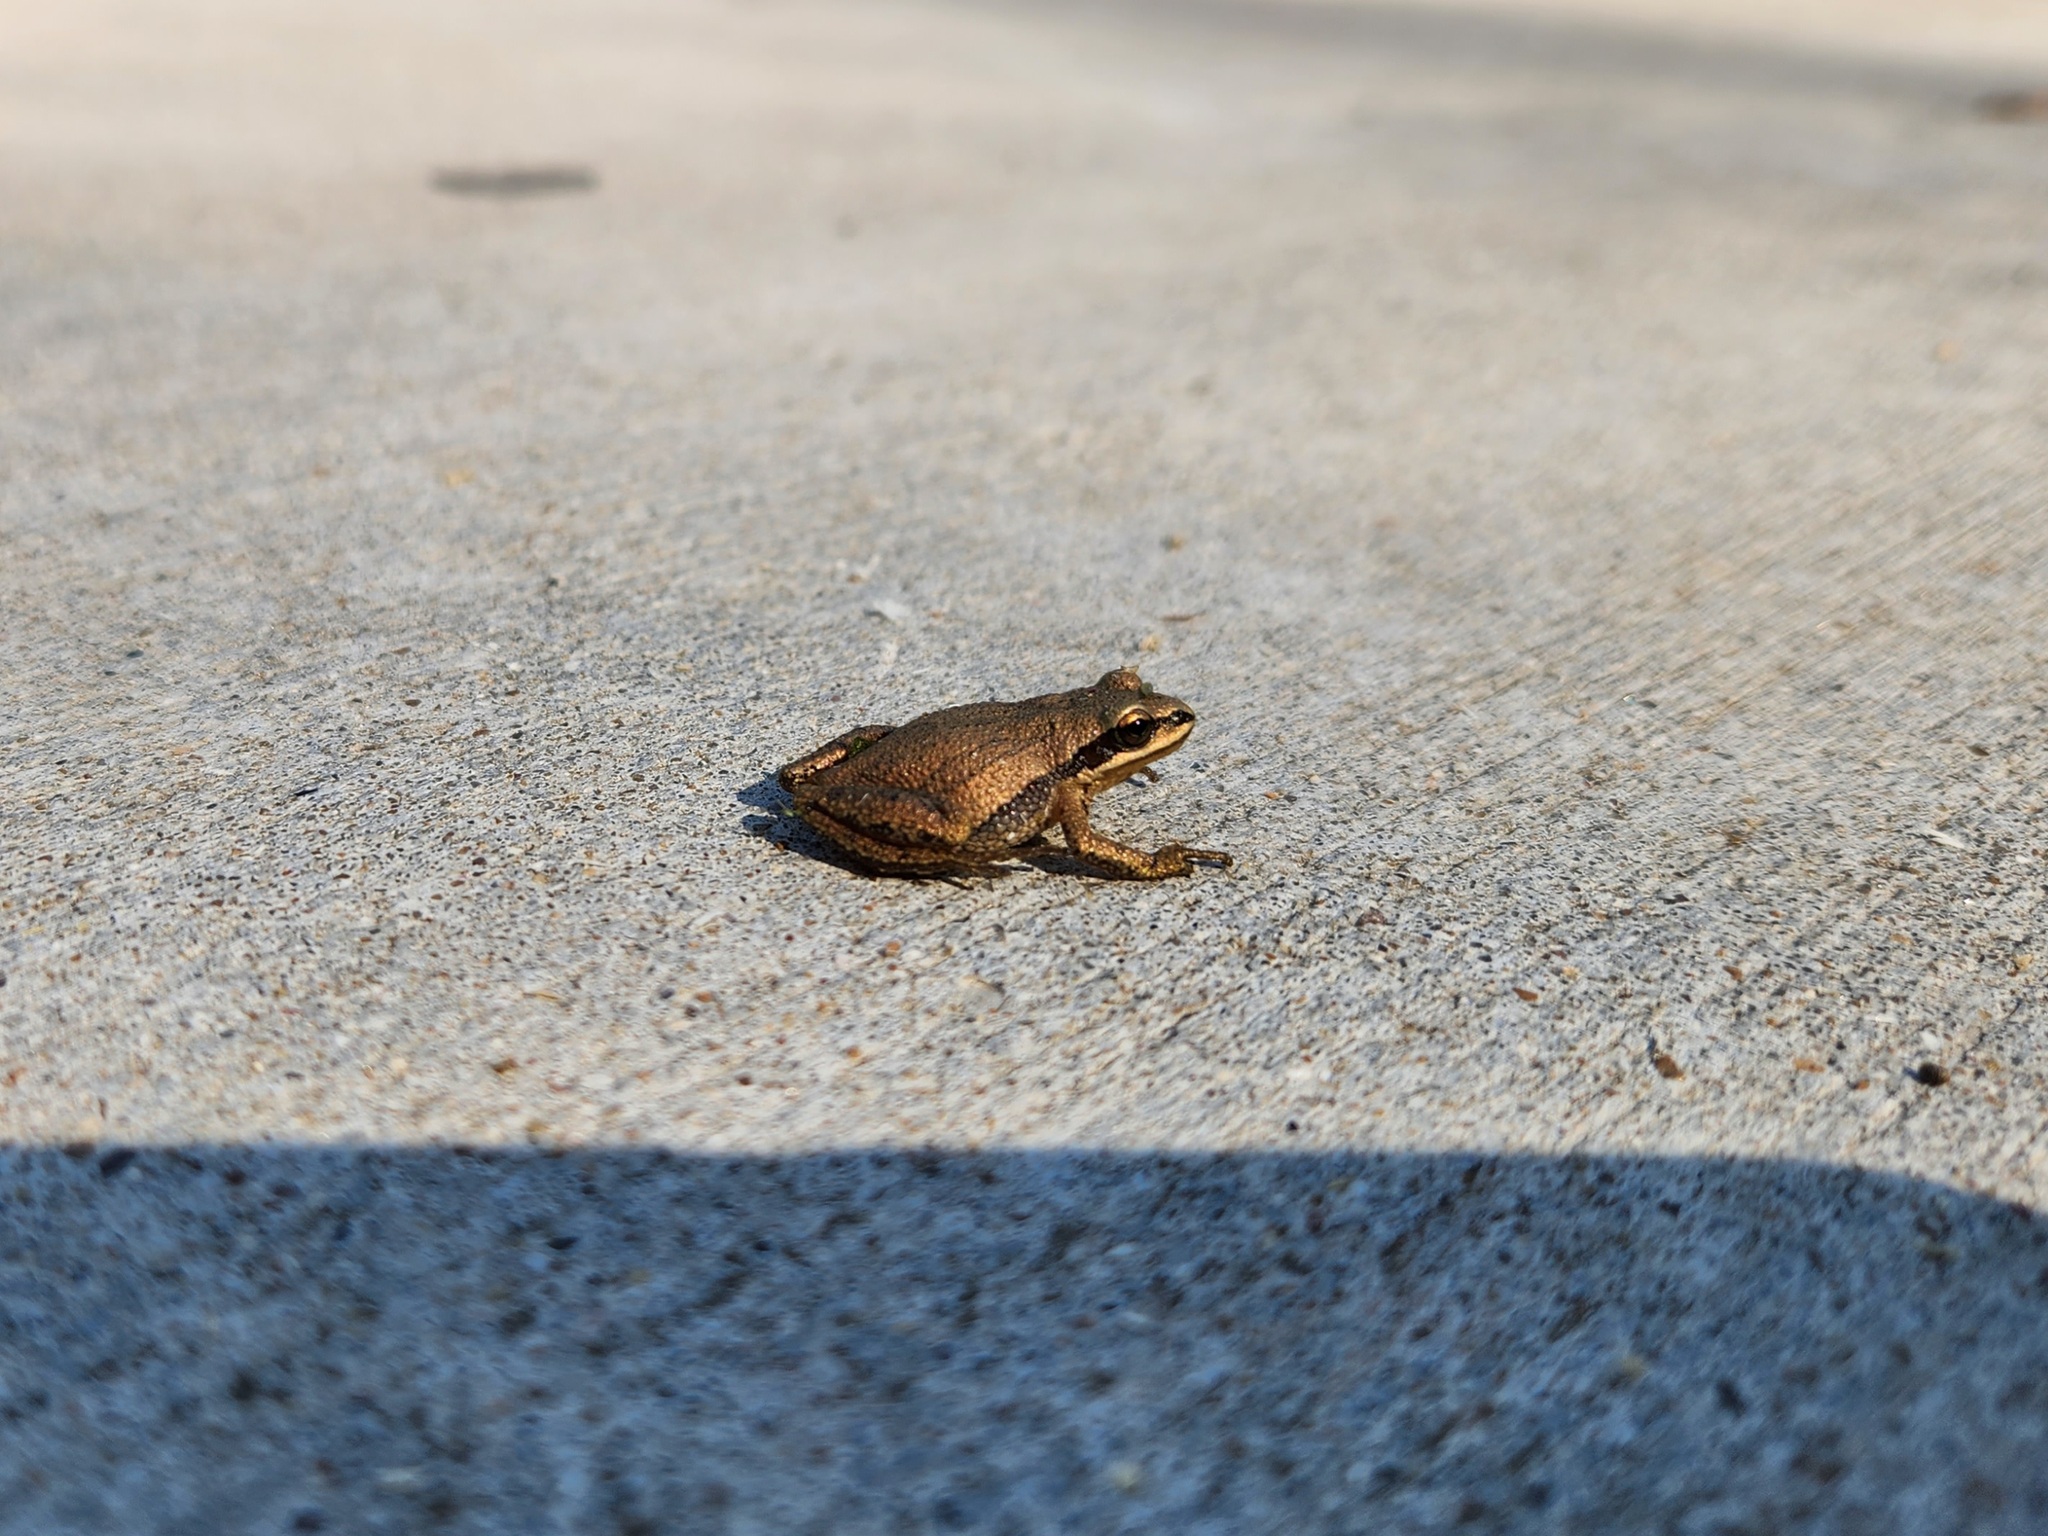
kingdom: Animalia
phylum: Chordata
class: Amphibia
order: Anura
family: Hylidae
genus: Pseudacris
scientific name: Pseudacris feriarum
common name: Upland chorus frog
